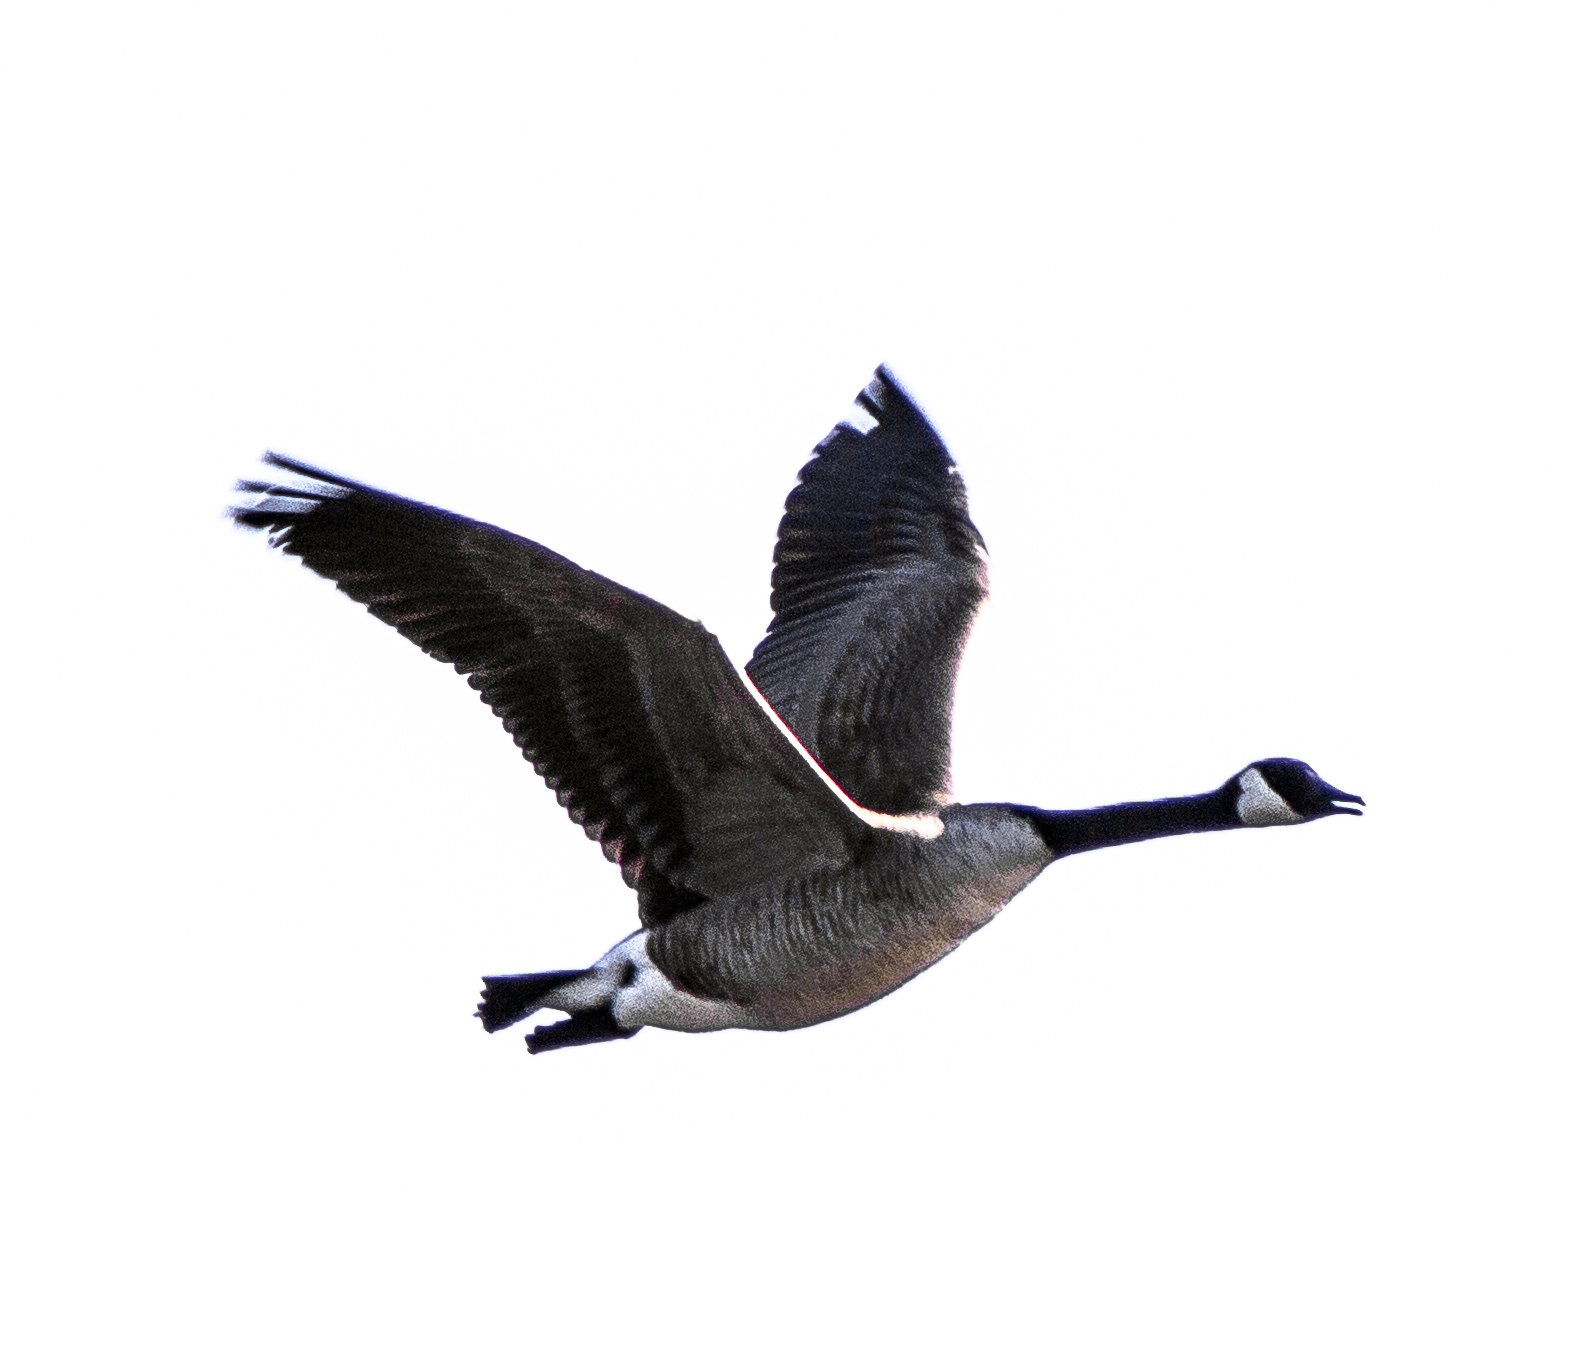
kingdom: Animalia
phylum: Chordata
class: Aves
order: Anseriformes
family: Anatidae
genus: Branta
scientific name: Branta canadensis
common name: Canada goose
